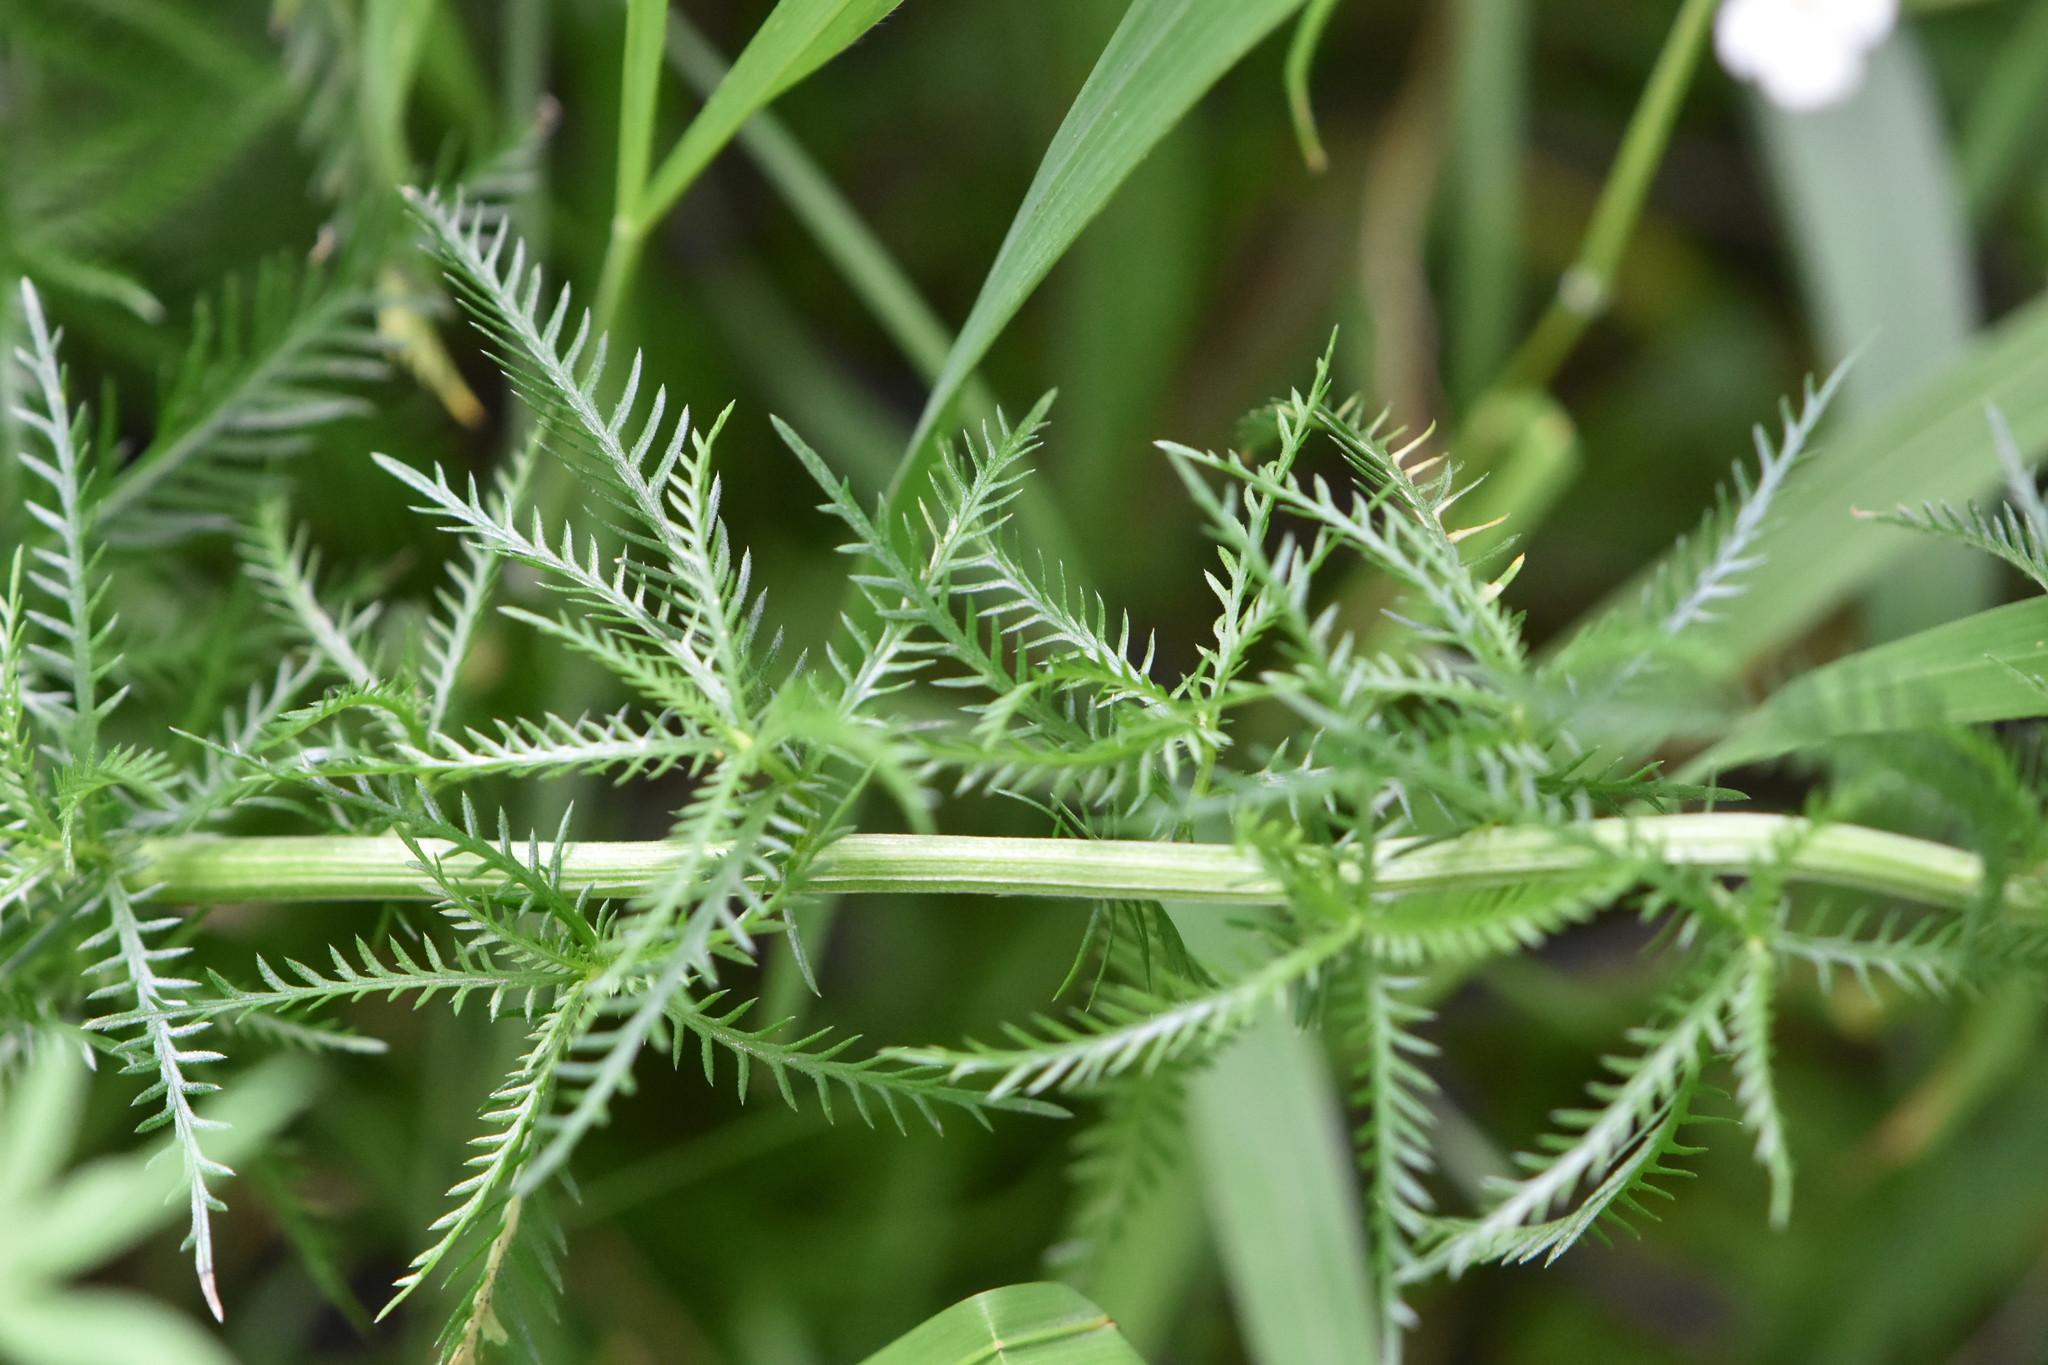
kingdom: Plantae
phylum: Tracheophyta
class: Magnoliopsida
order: Asterales
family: Asteraceae
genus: Achillea
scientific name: Achillea impatiens
